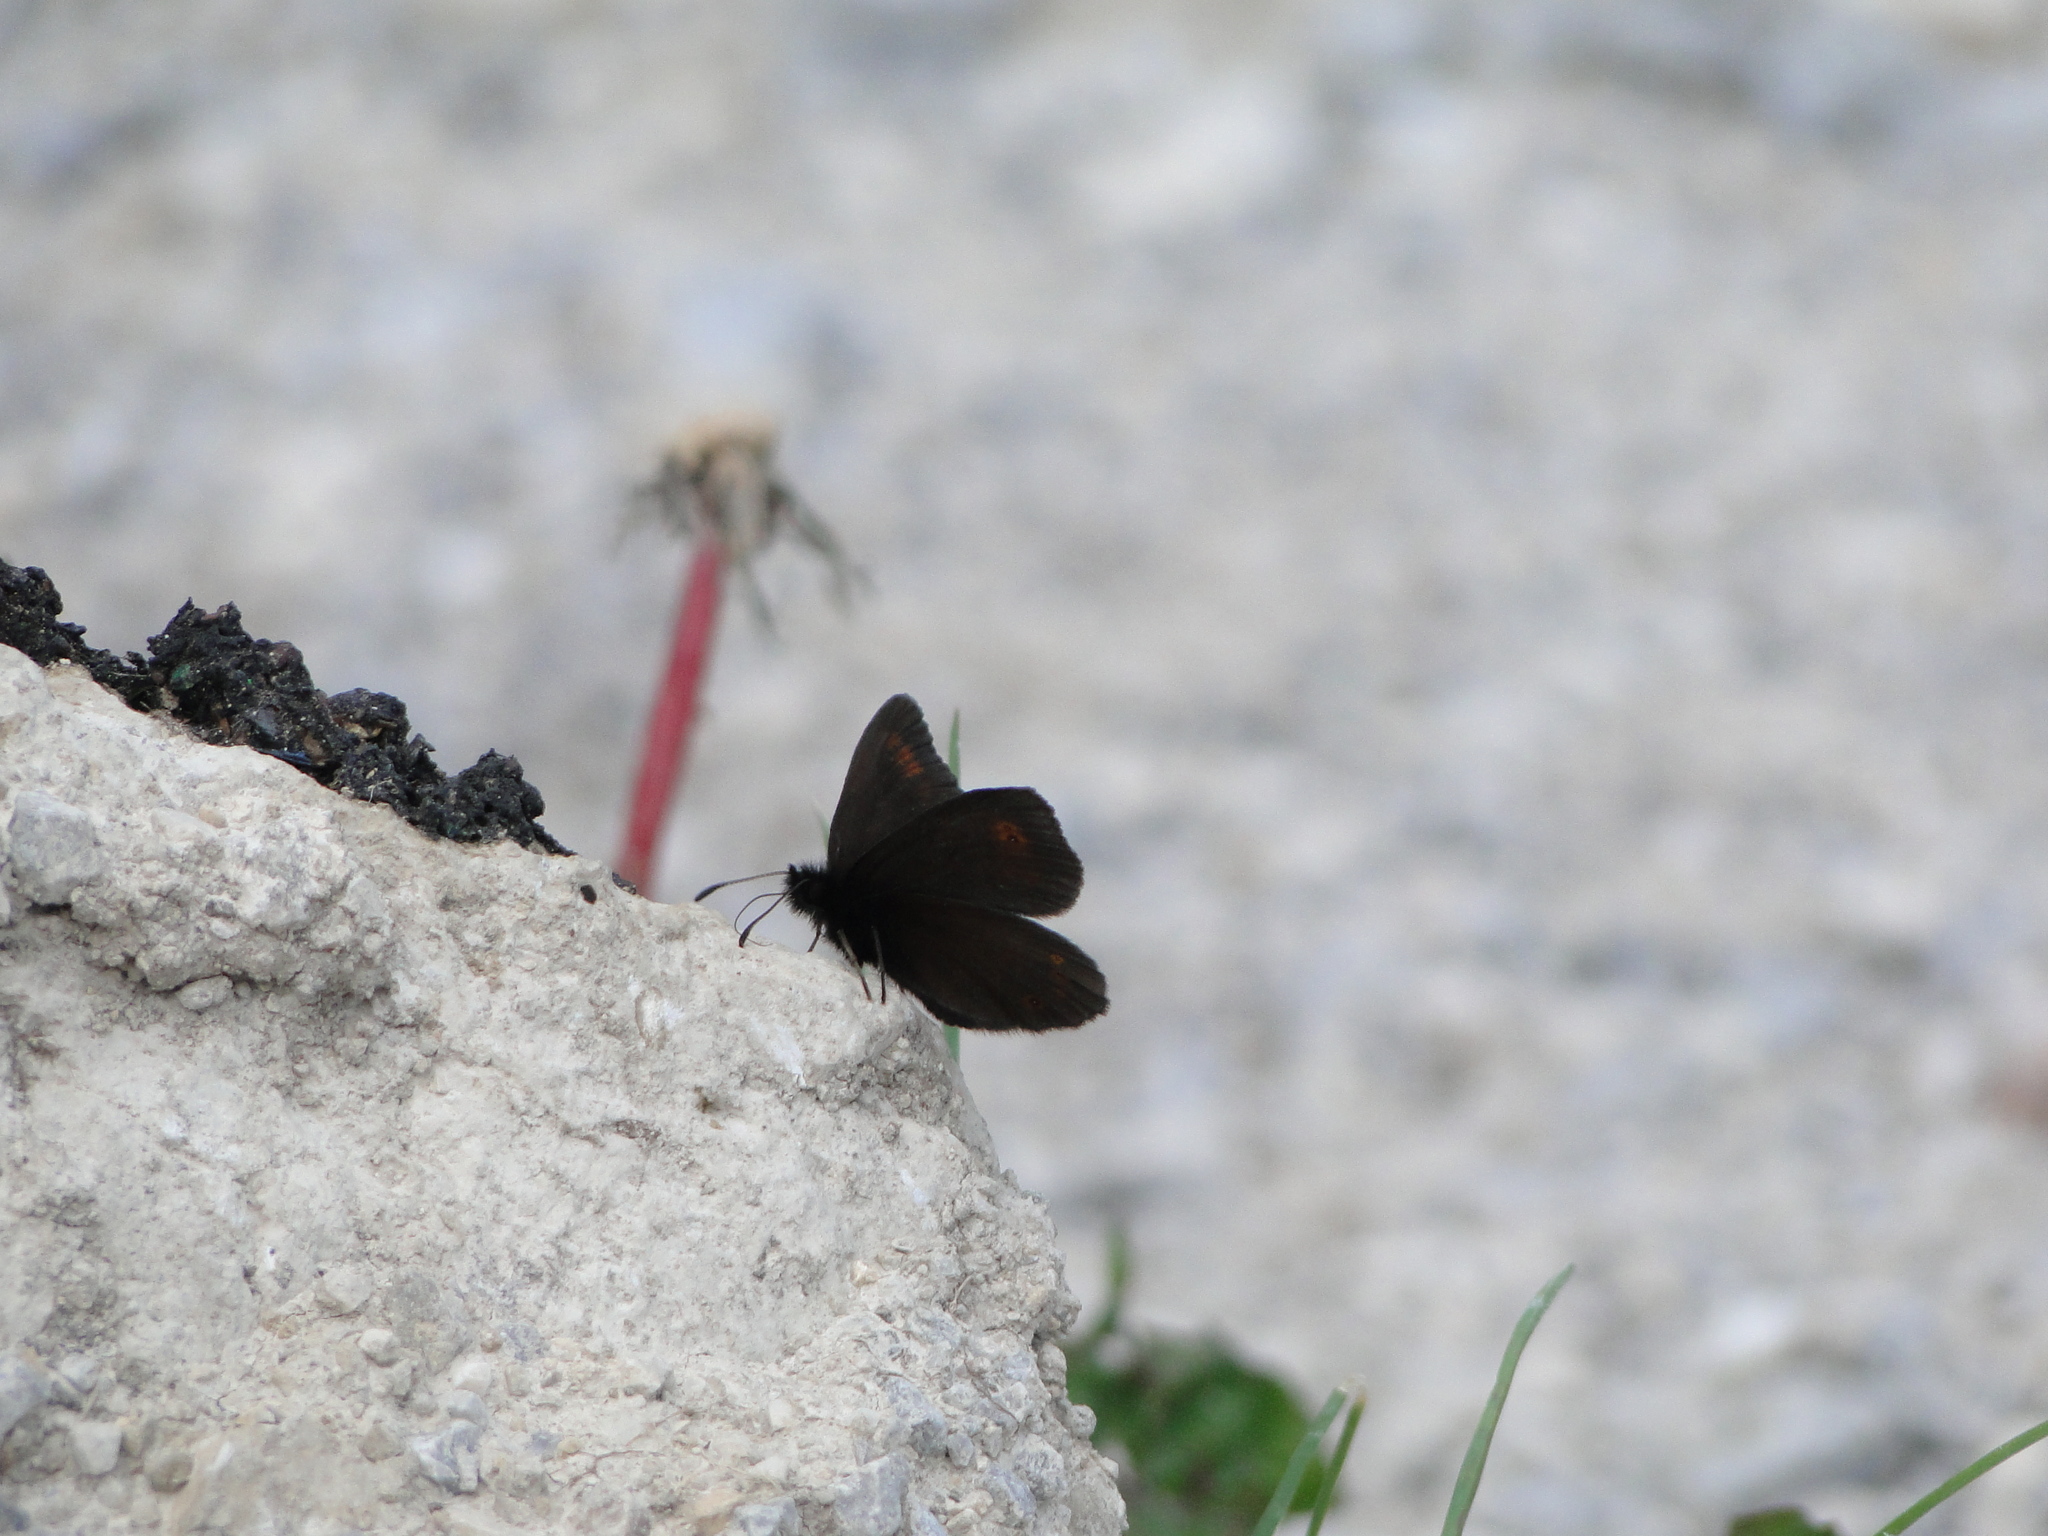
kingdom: Animalia
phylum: Arthropoda
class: Insecta
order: Lepidoptera
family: Nymphalidae
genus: Erebia
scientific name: Erebia oeme
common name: Bright-eyed ringlet
